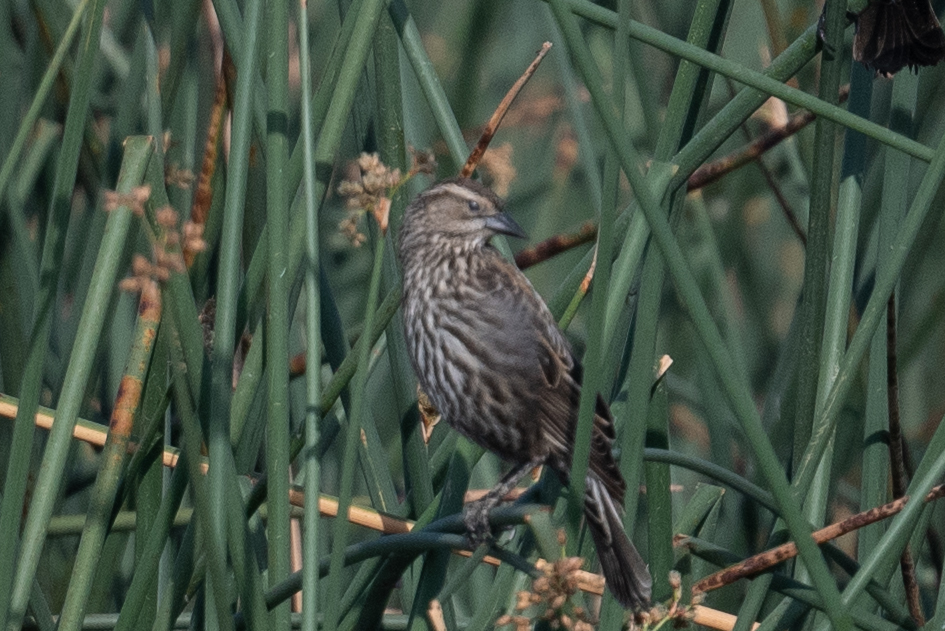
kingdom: Animalia
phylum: Chordata
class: Aves
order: Passeriformes
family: Icteridae
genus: Agelaius
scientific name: Agelaius phoeniceus
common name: Red-winged blackbird
